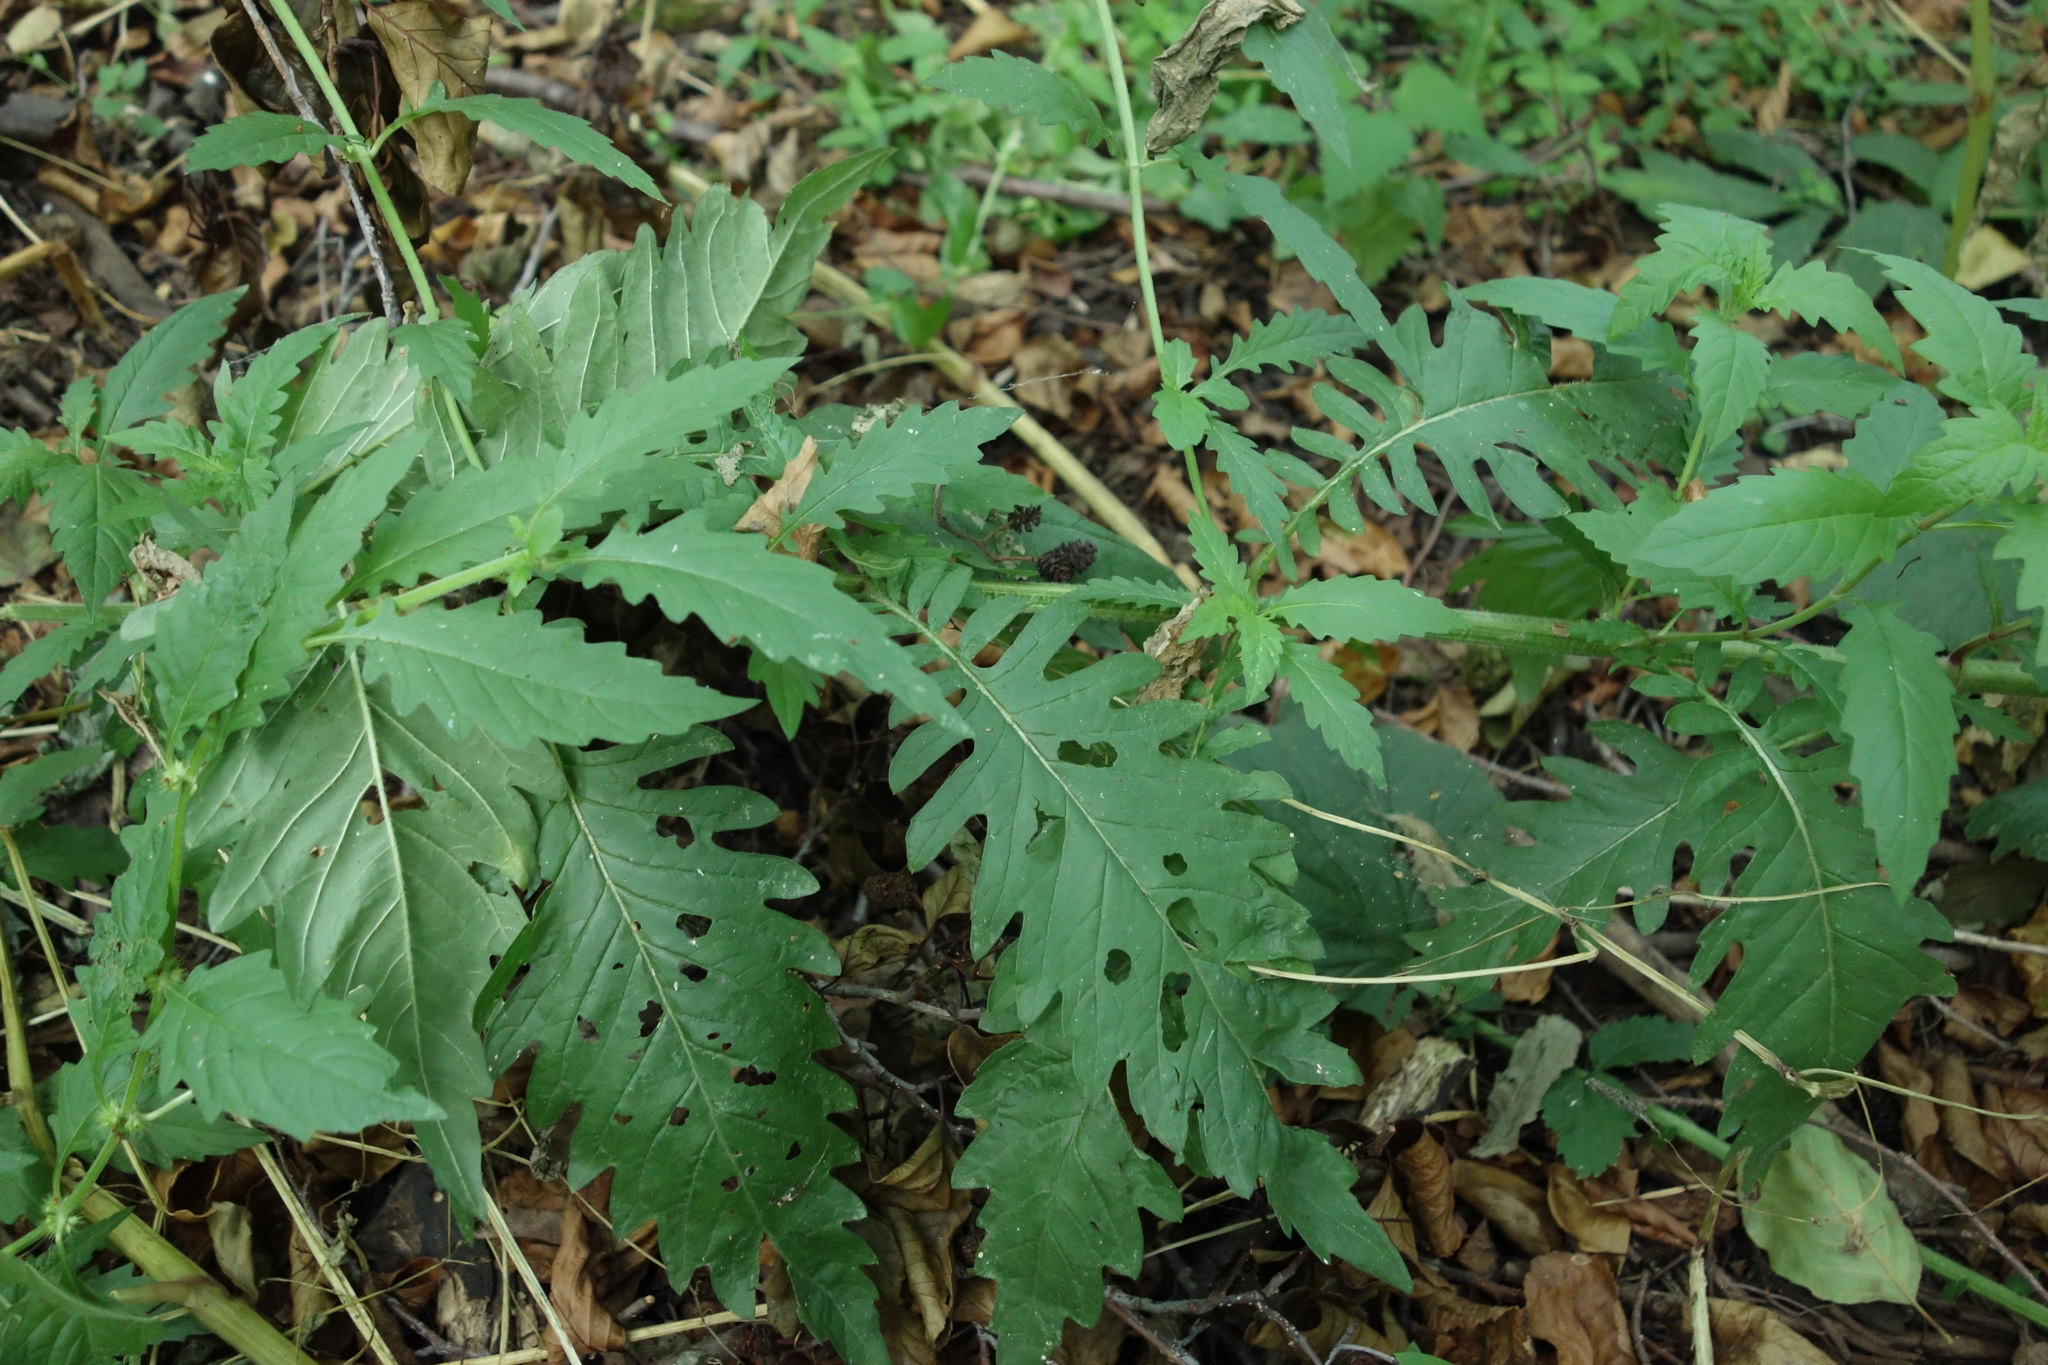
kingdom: Plantae
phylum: Tracheophyta
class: Magnoliopsida
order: Lamiales
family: Lamiaceae
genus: Lycopus
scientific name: Lycopus europaeus
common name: European bugleweed
